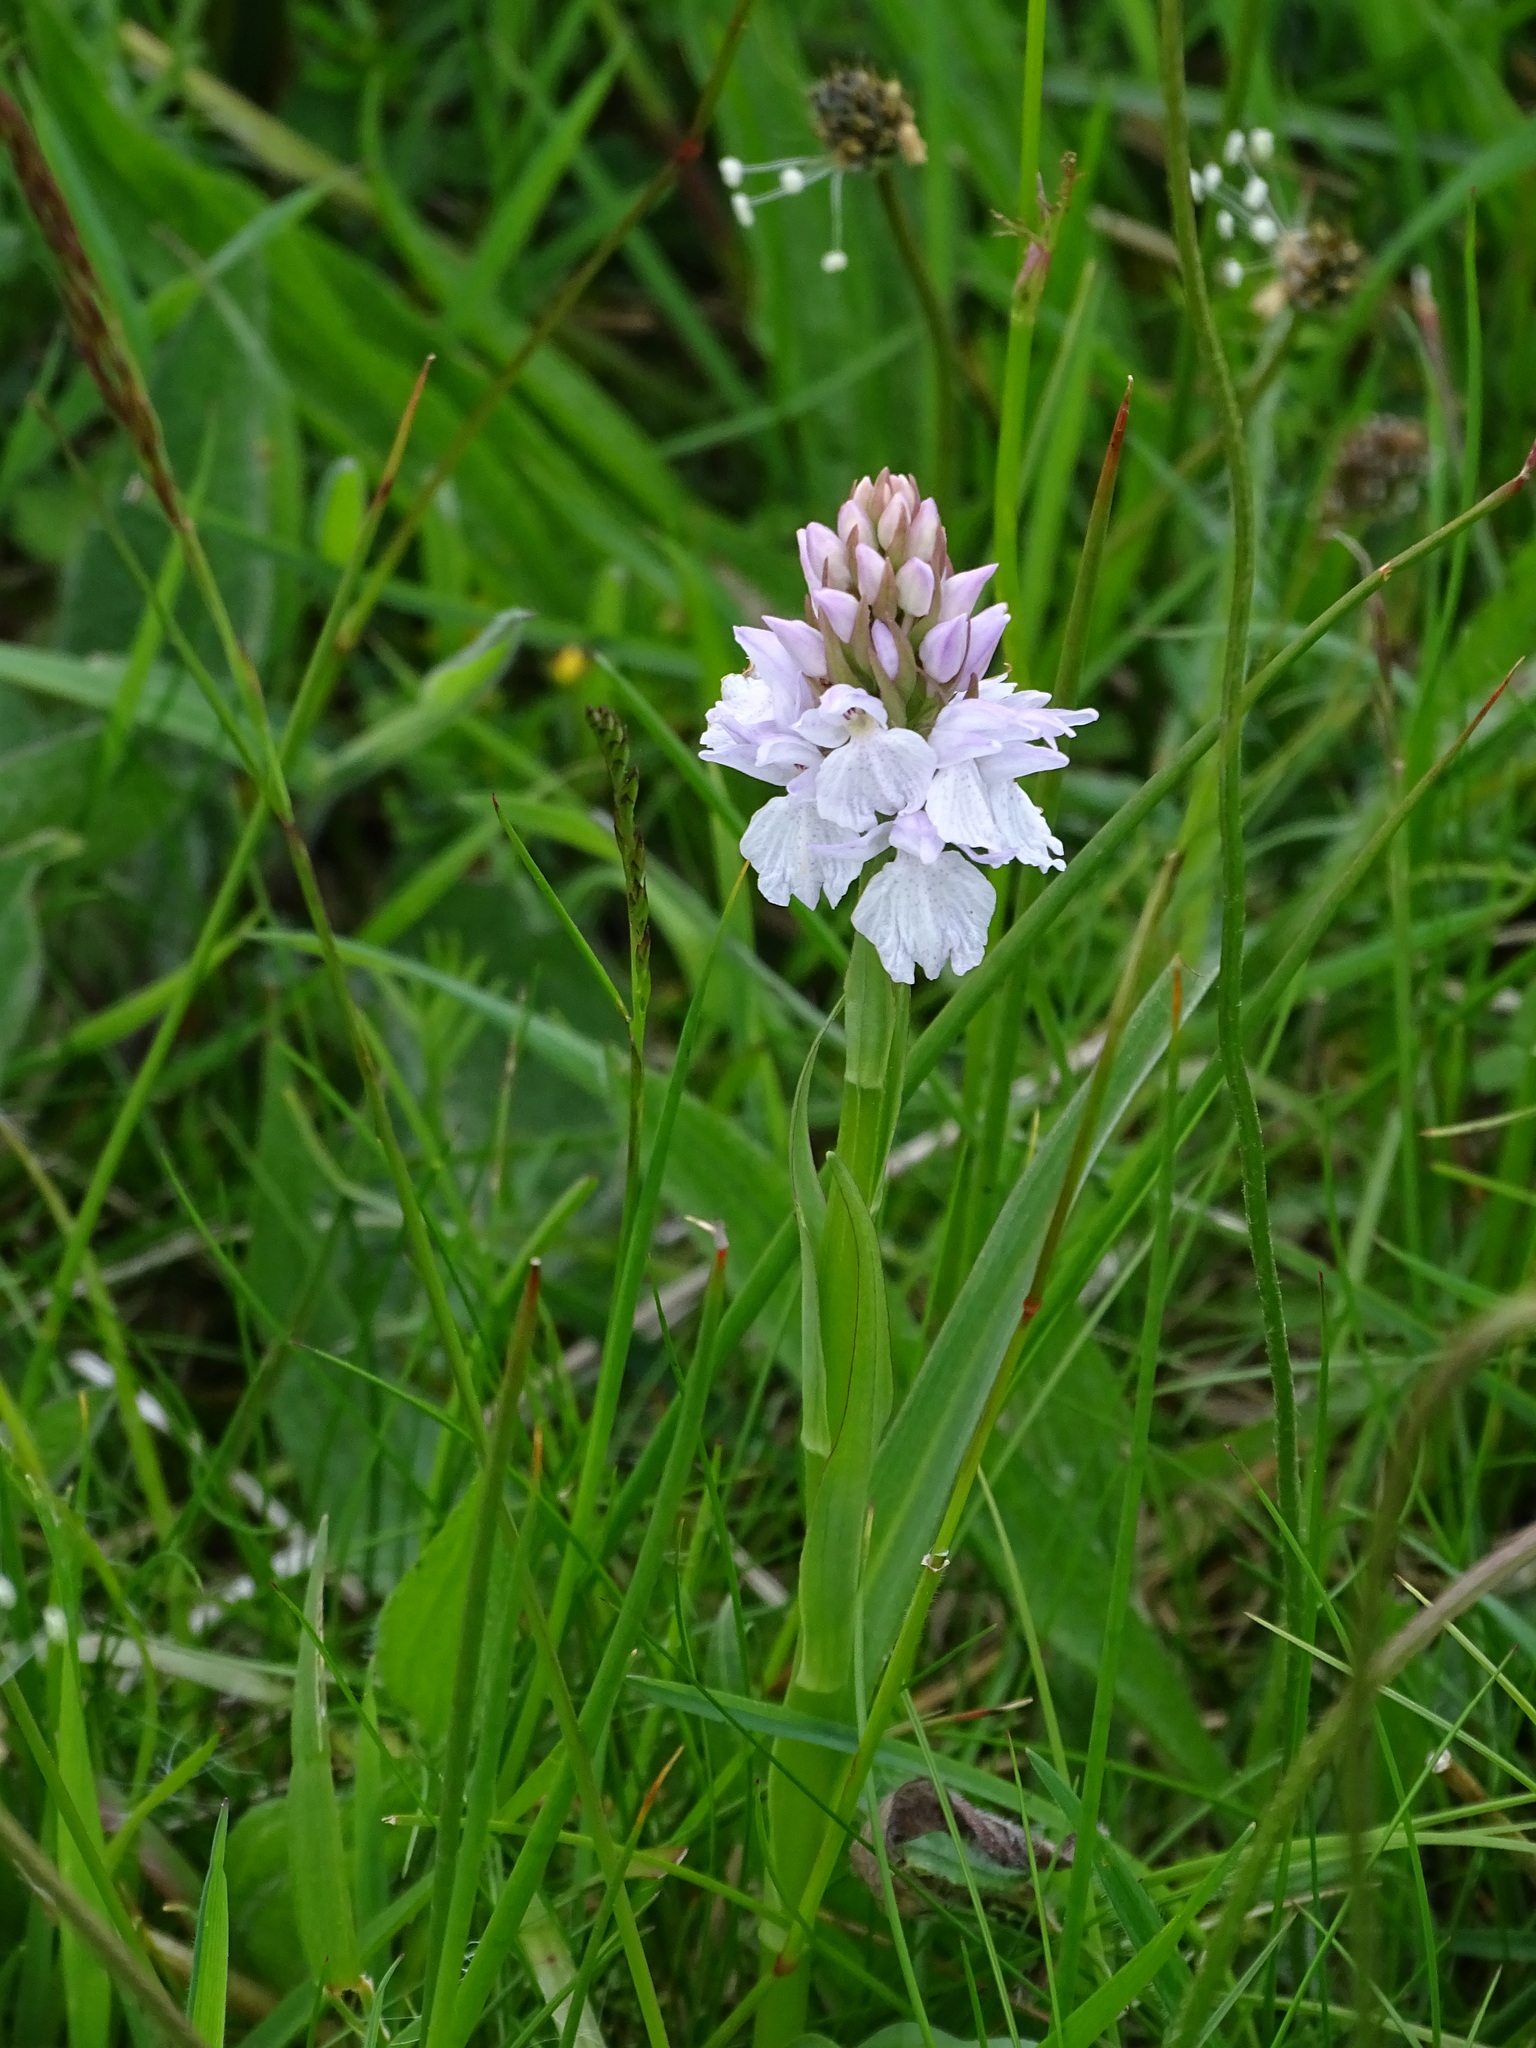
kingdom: Plantae
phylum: Tracheophyta
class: Liliopsida
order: Asparagales
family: Orchidaceae
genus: Dactylorhiza
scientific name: Dactylorhiza maculata
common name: Heath spotted-orchid
